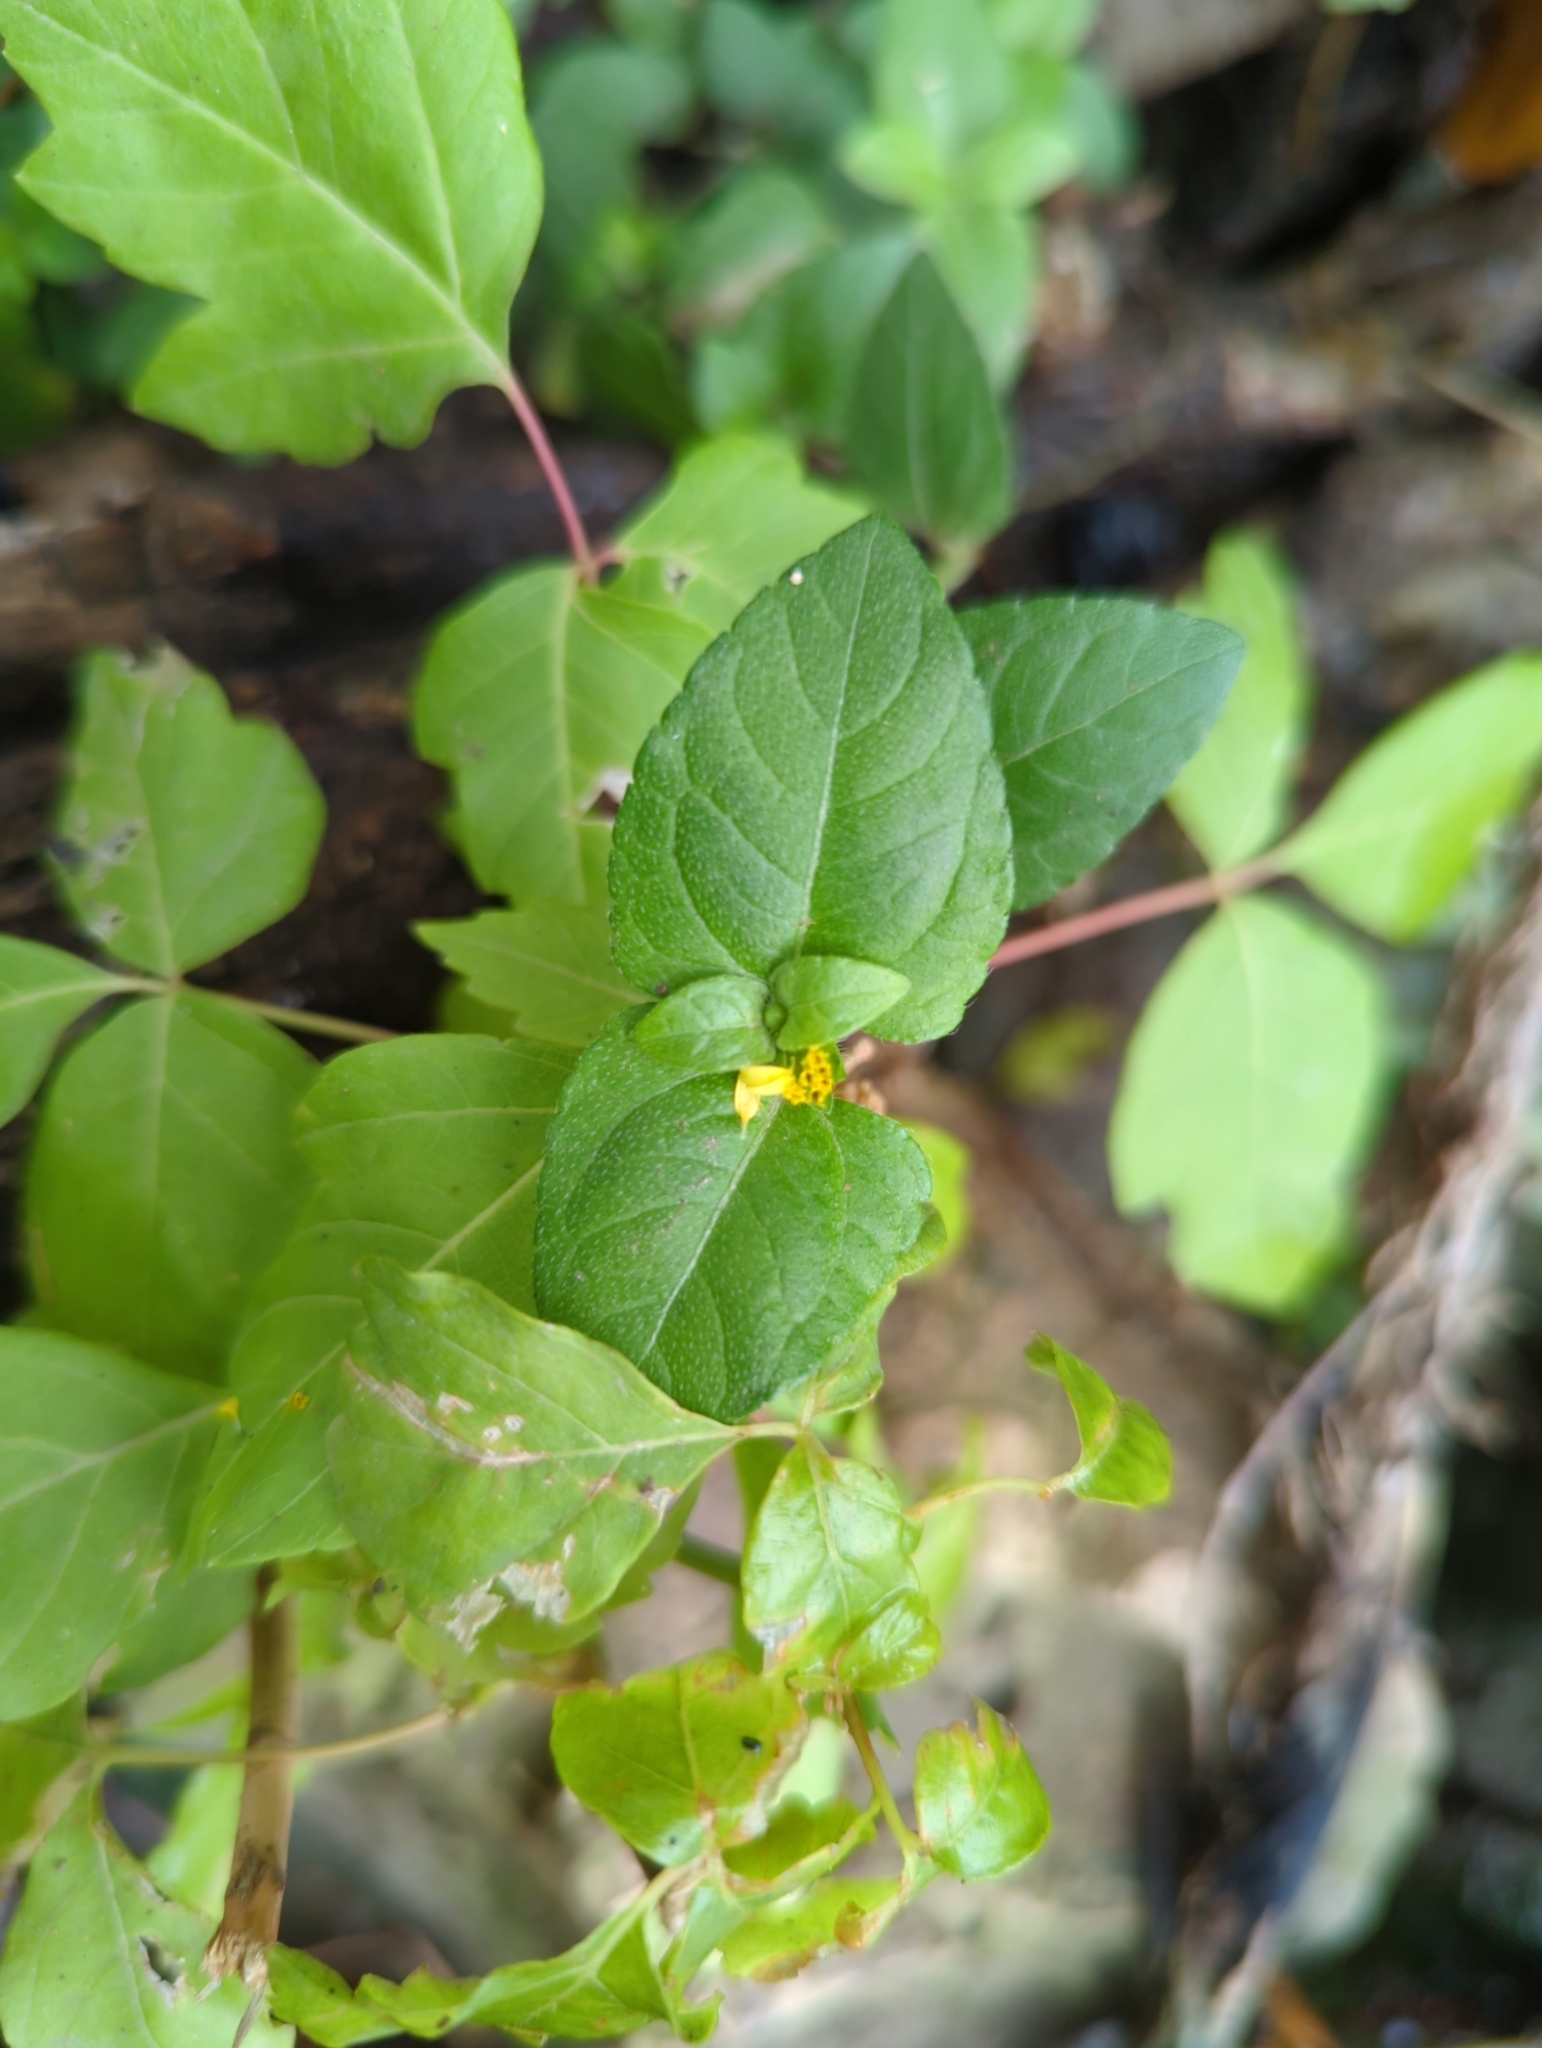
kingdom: Plantae
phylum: Tracheophyta
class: Magnoliopsida
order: Asterales
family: Asteraceae
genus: Calyptocarpus
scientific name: Calyptocarpus vialis
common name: Straggler daisy
